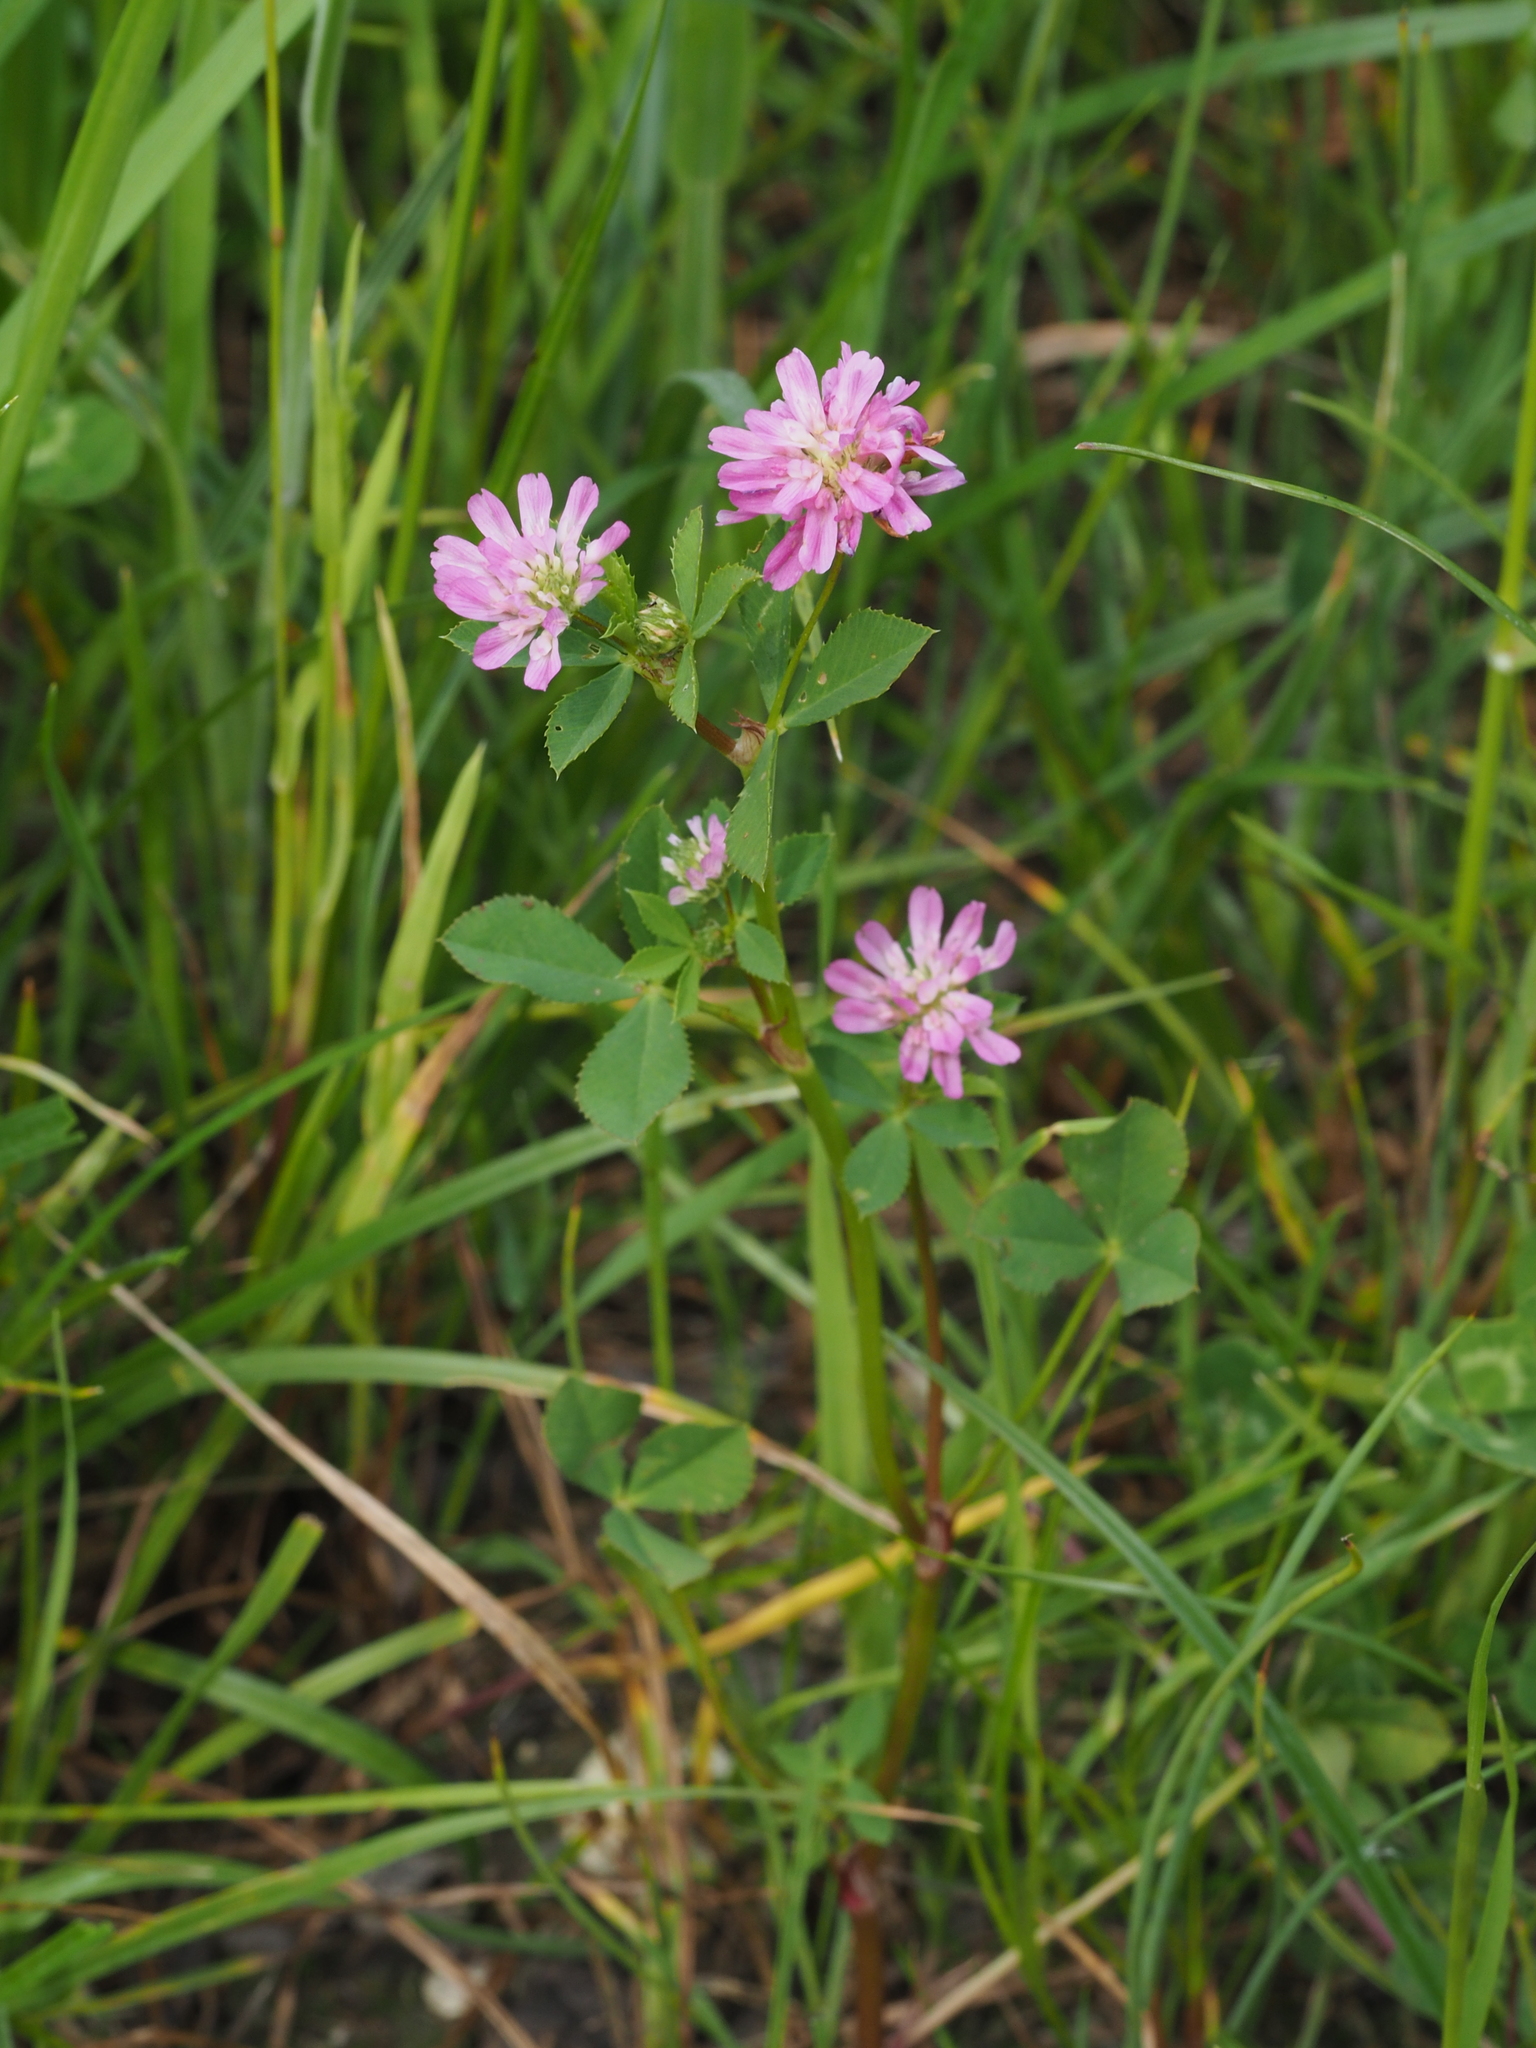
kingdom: Plantae
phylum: Tracheophyta
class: Magnoliopsida
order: Fabales
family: Fabaceae
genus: Trifolium
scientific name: Trifolium resupinatum
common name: Reversed clover
